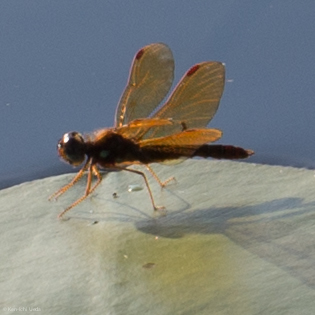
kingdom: Animalia
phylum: Arthropoda
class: Insecta
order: Odonata
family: Libellulidae
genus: Perithemis
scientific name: Perithemis tenera
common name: Eastern amberwing
